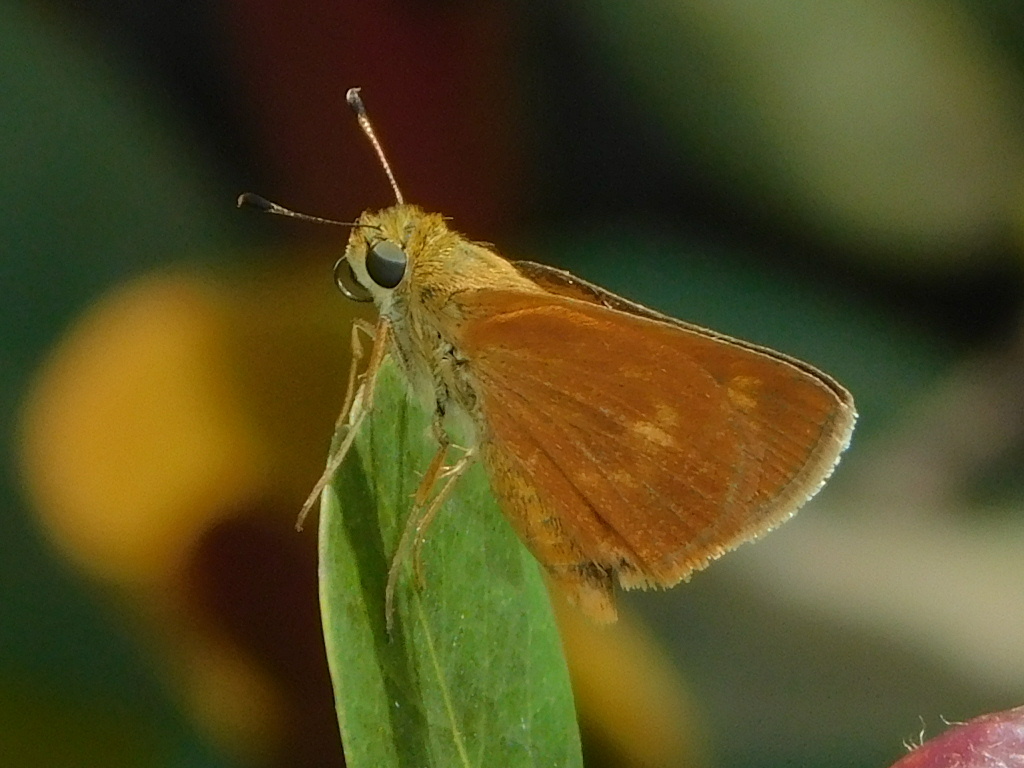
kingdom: Animalia
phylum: Arthropoda
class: Insecta
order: Lepidoptera
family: Hesperiidae
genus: Polites
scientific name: Polites otho
